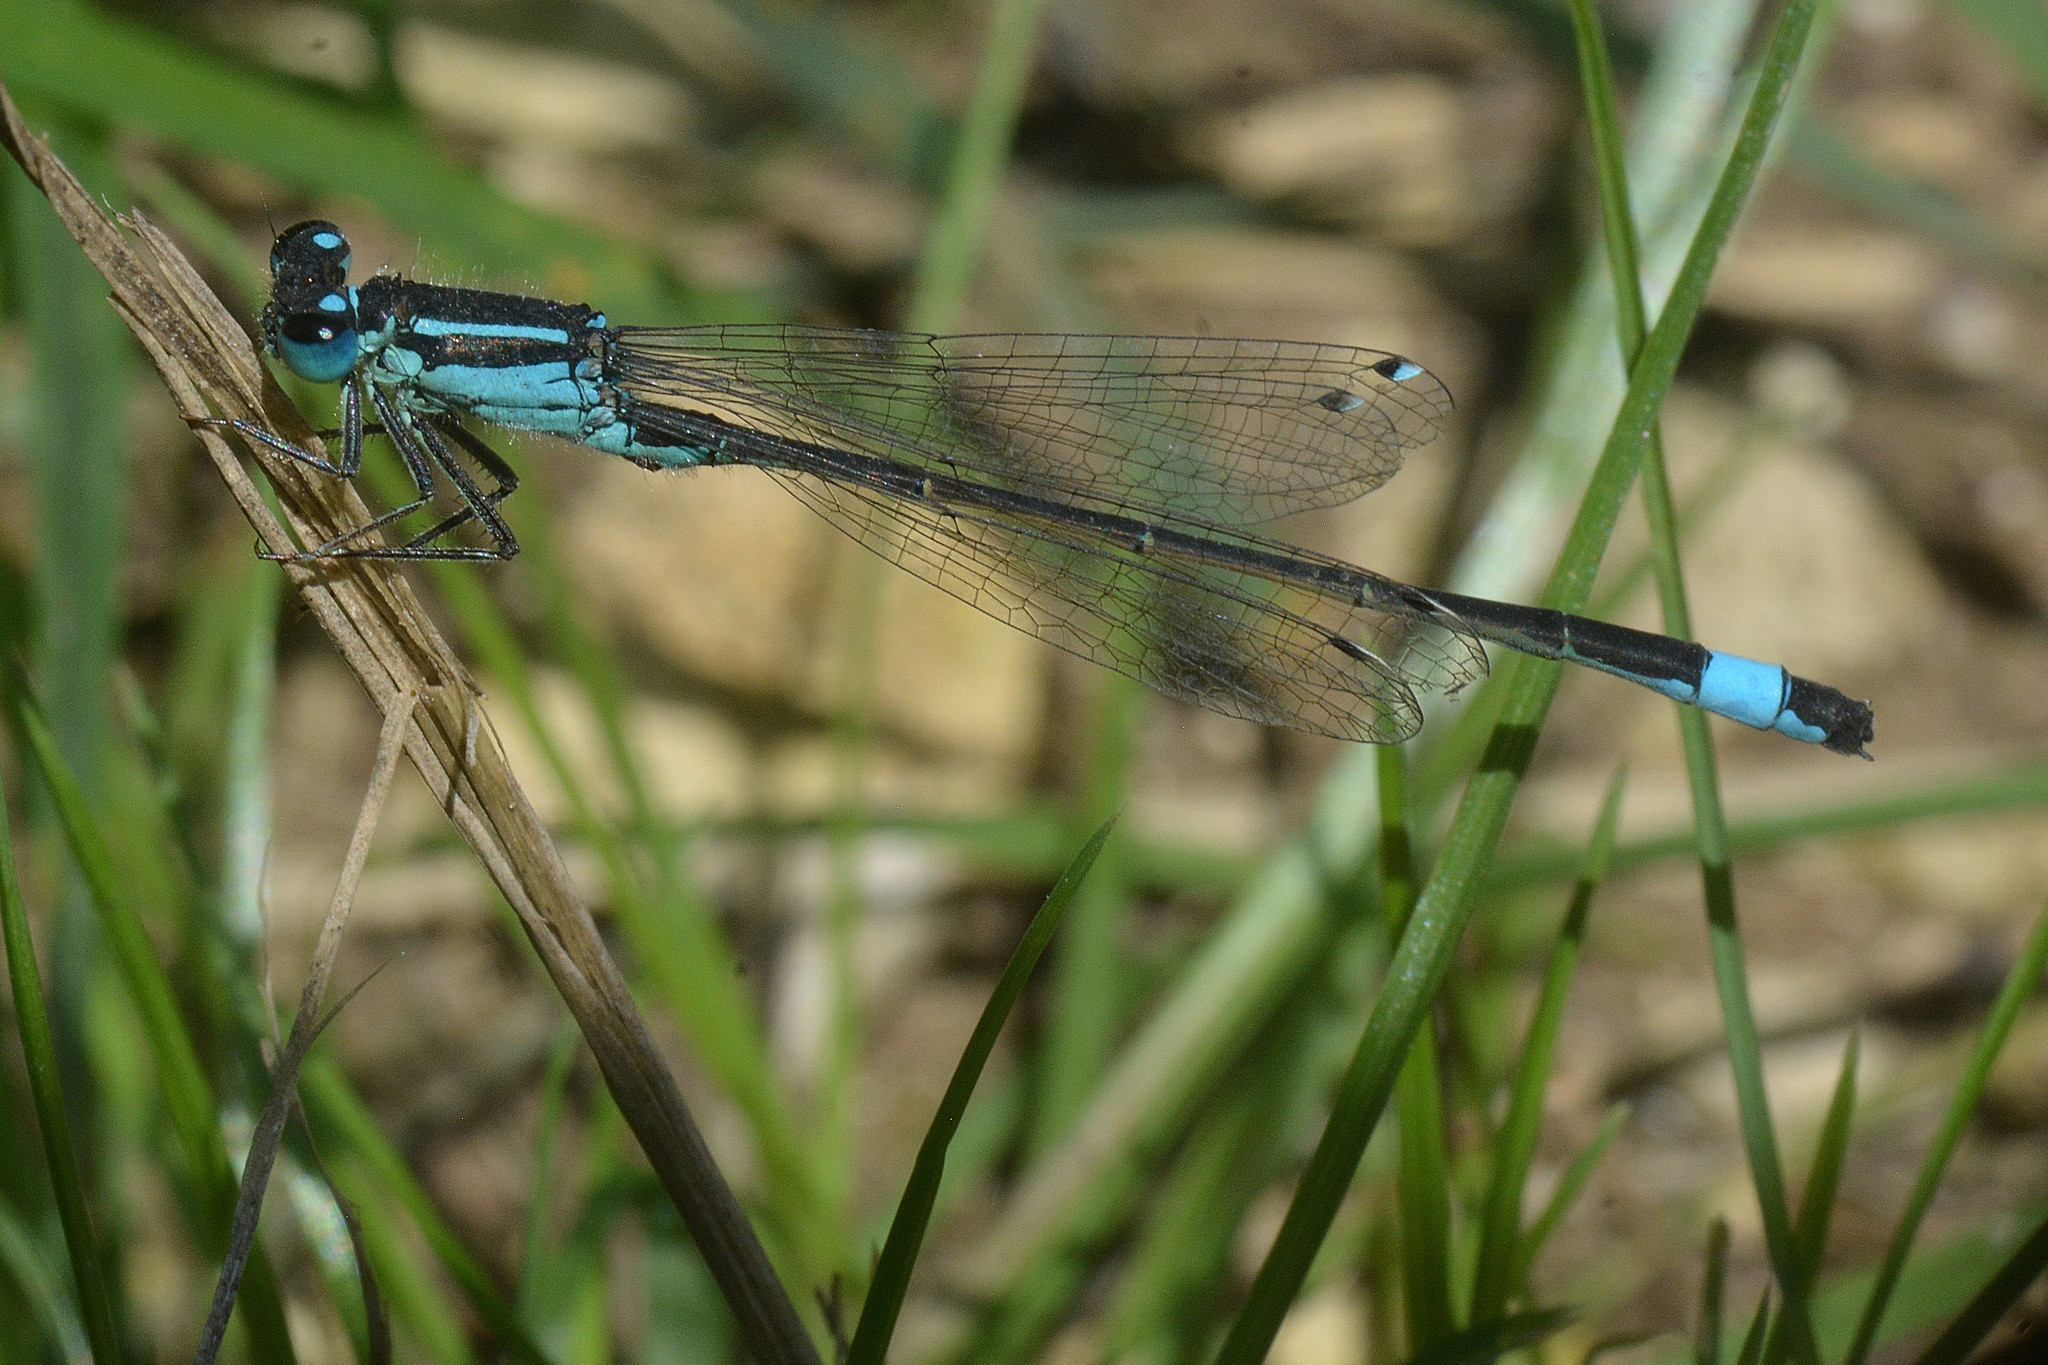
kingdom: Animalia
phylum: Arthropoda
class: Insecta
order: Odonata
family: Coenagrionidae
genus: Ischnura
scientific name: Ischnura elegans
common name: Blue-tailed damselfly
